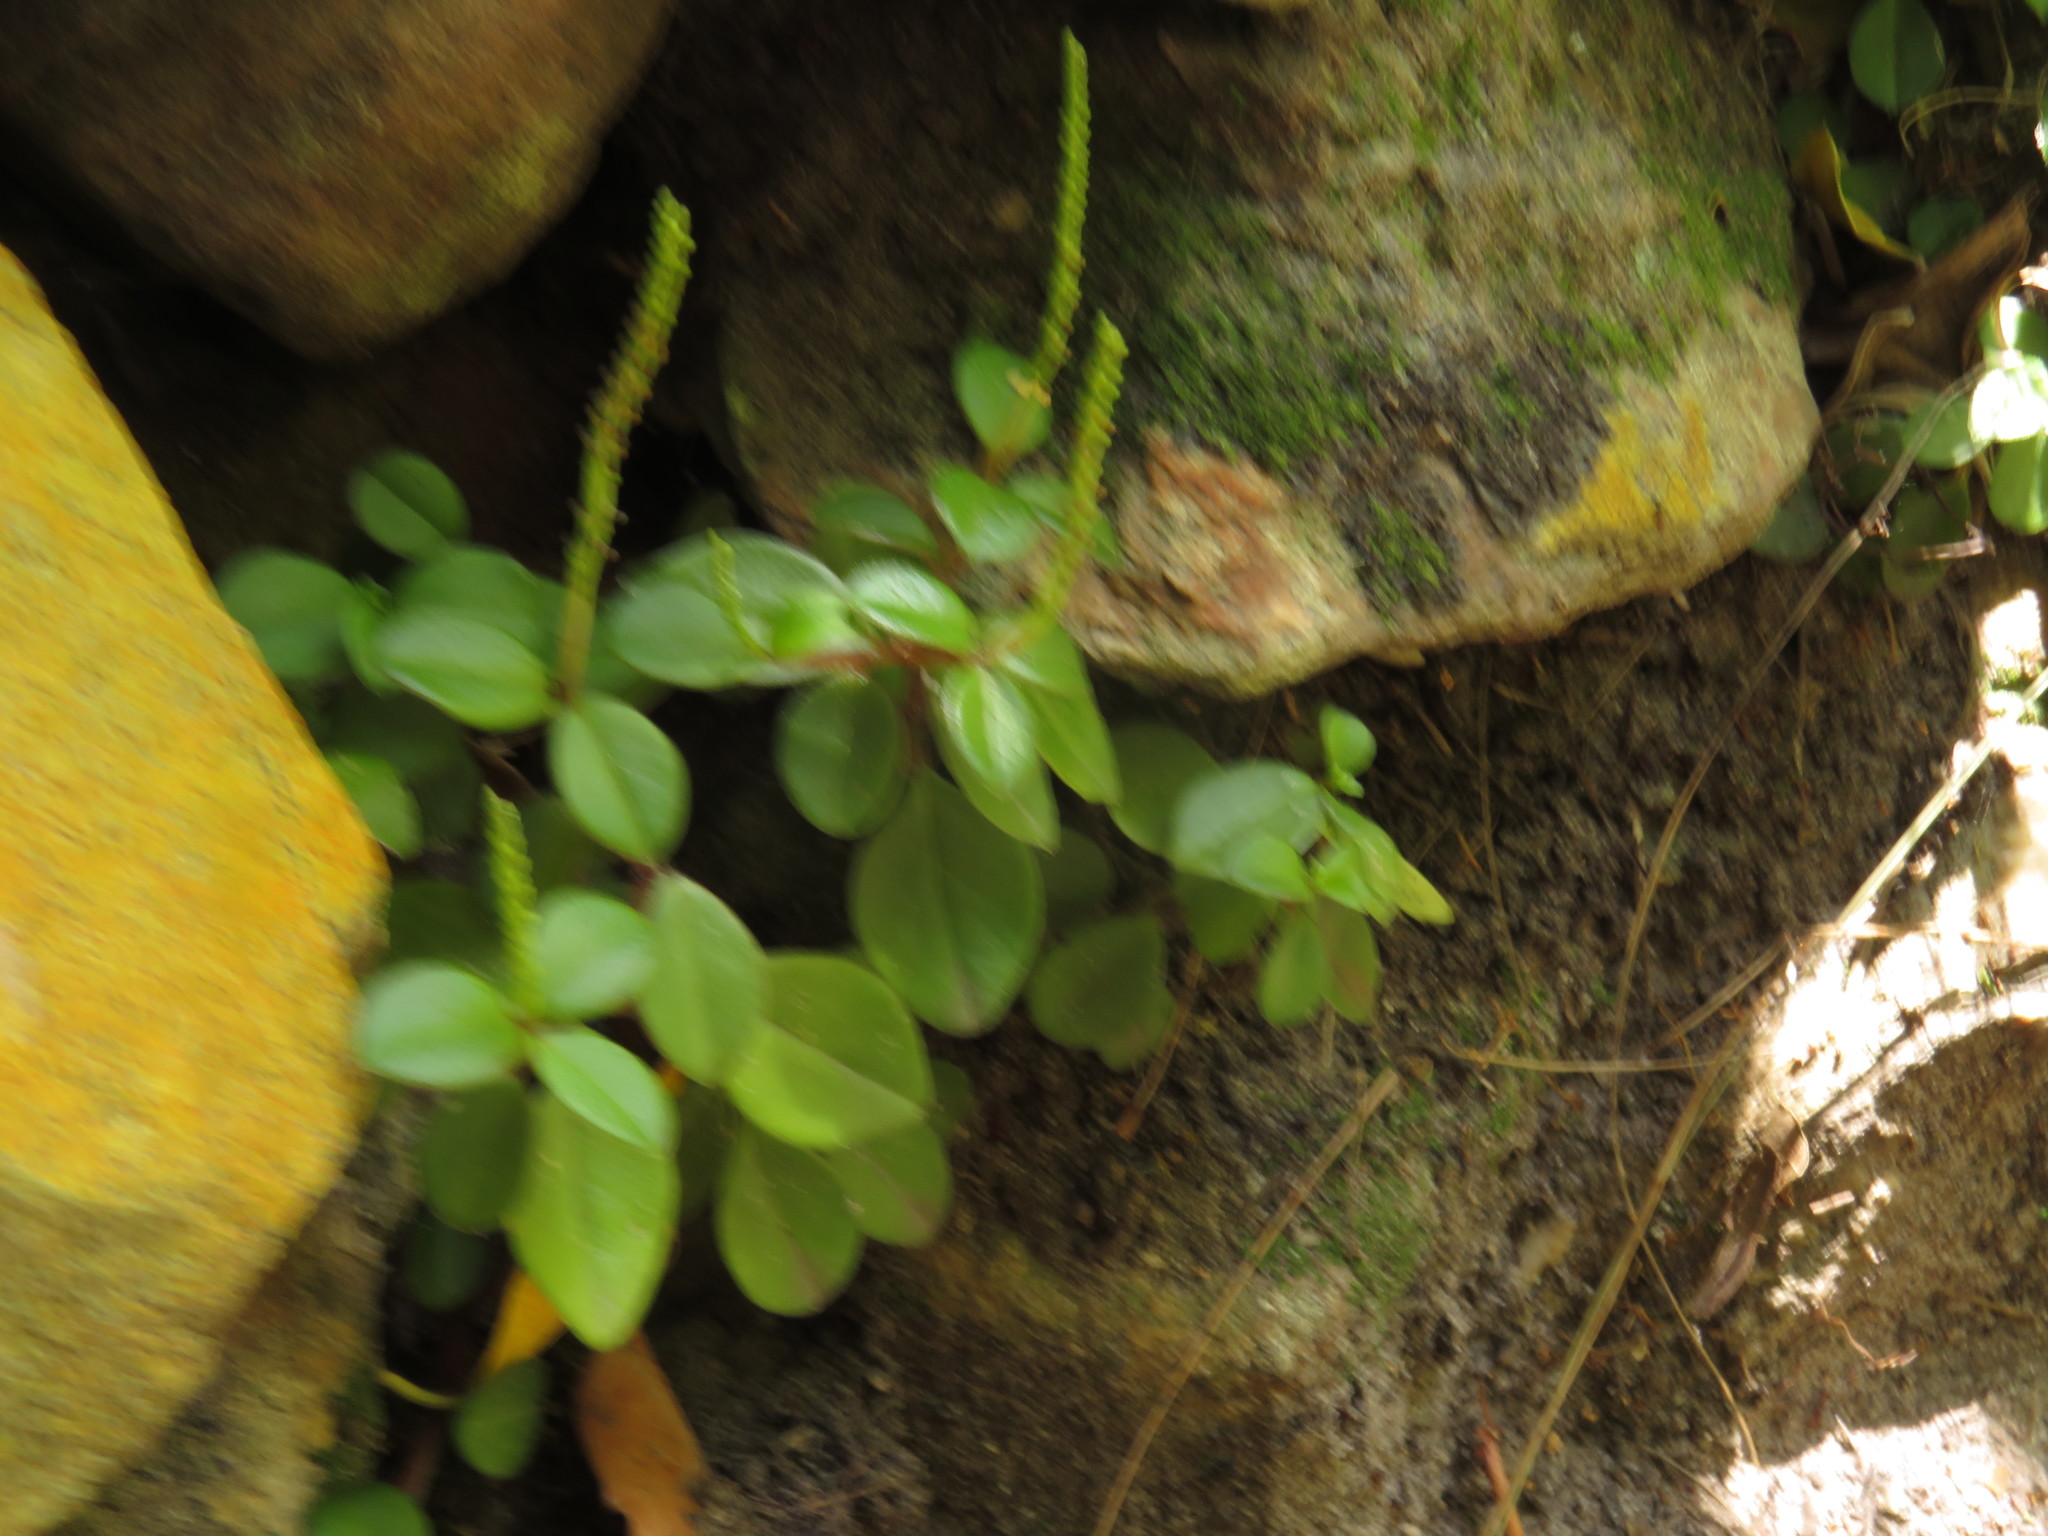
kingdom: Plantae
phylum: Tracheophyta
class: Magnoliopsida
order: Piperales
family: Piperaceae
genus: Peperomia
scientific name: Peperomia retusa
